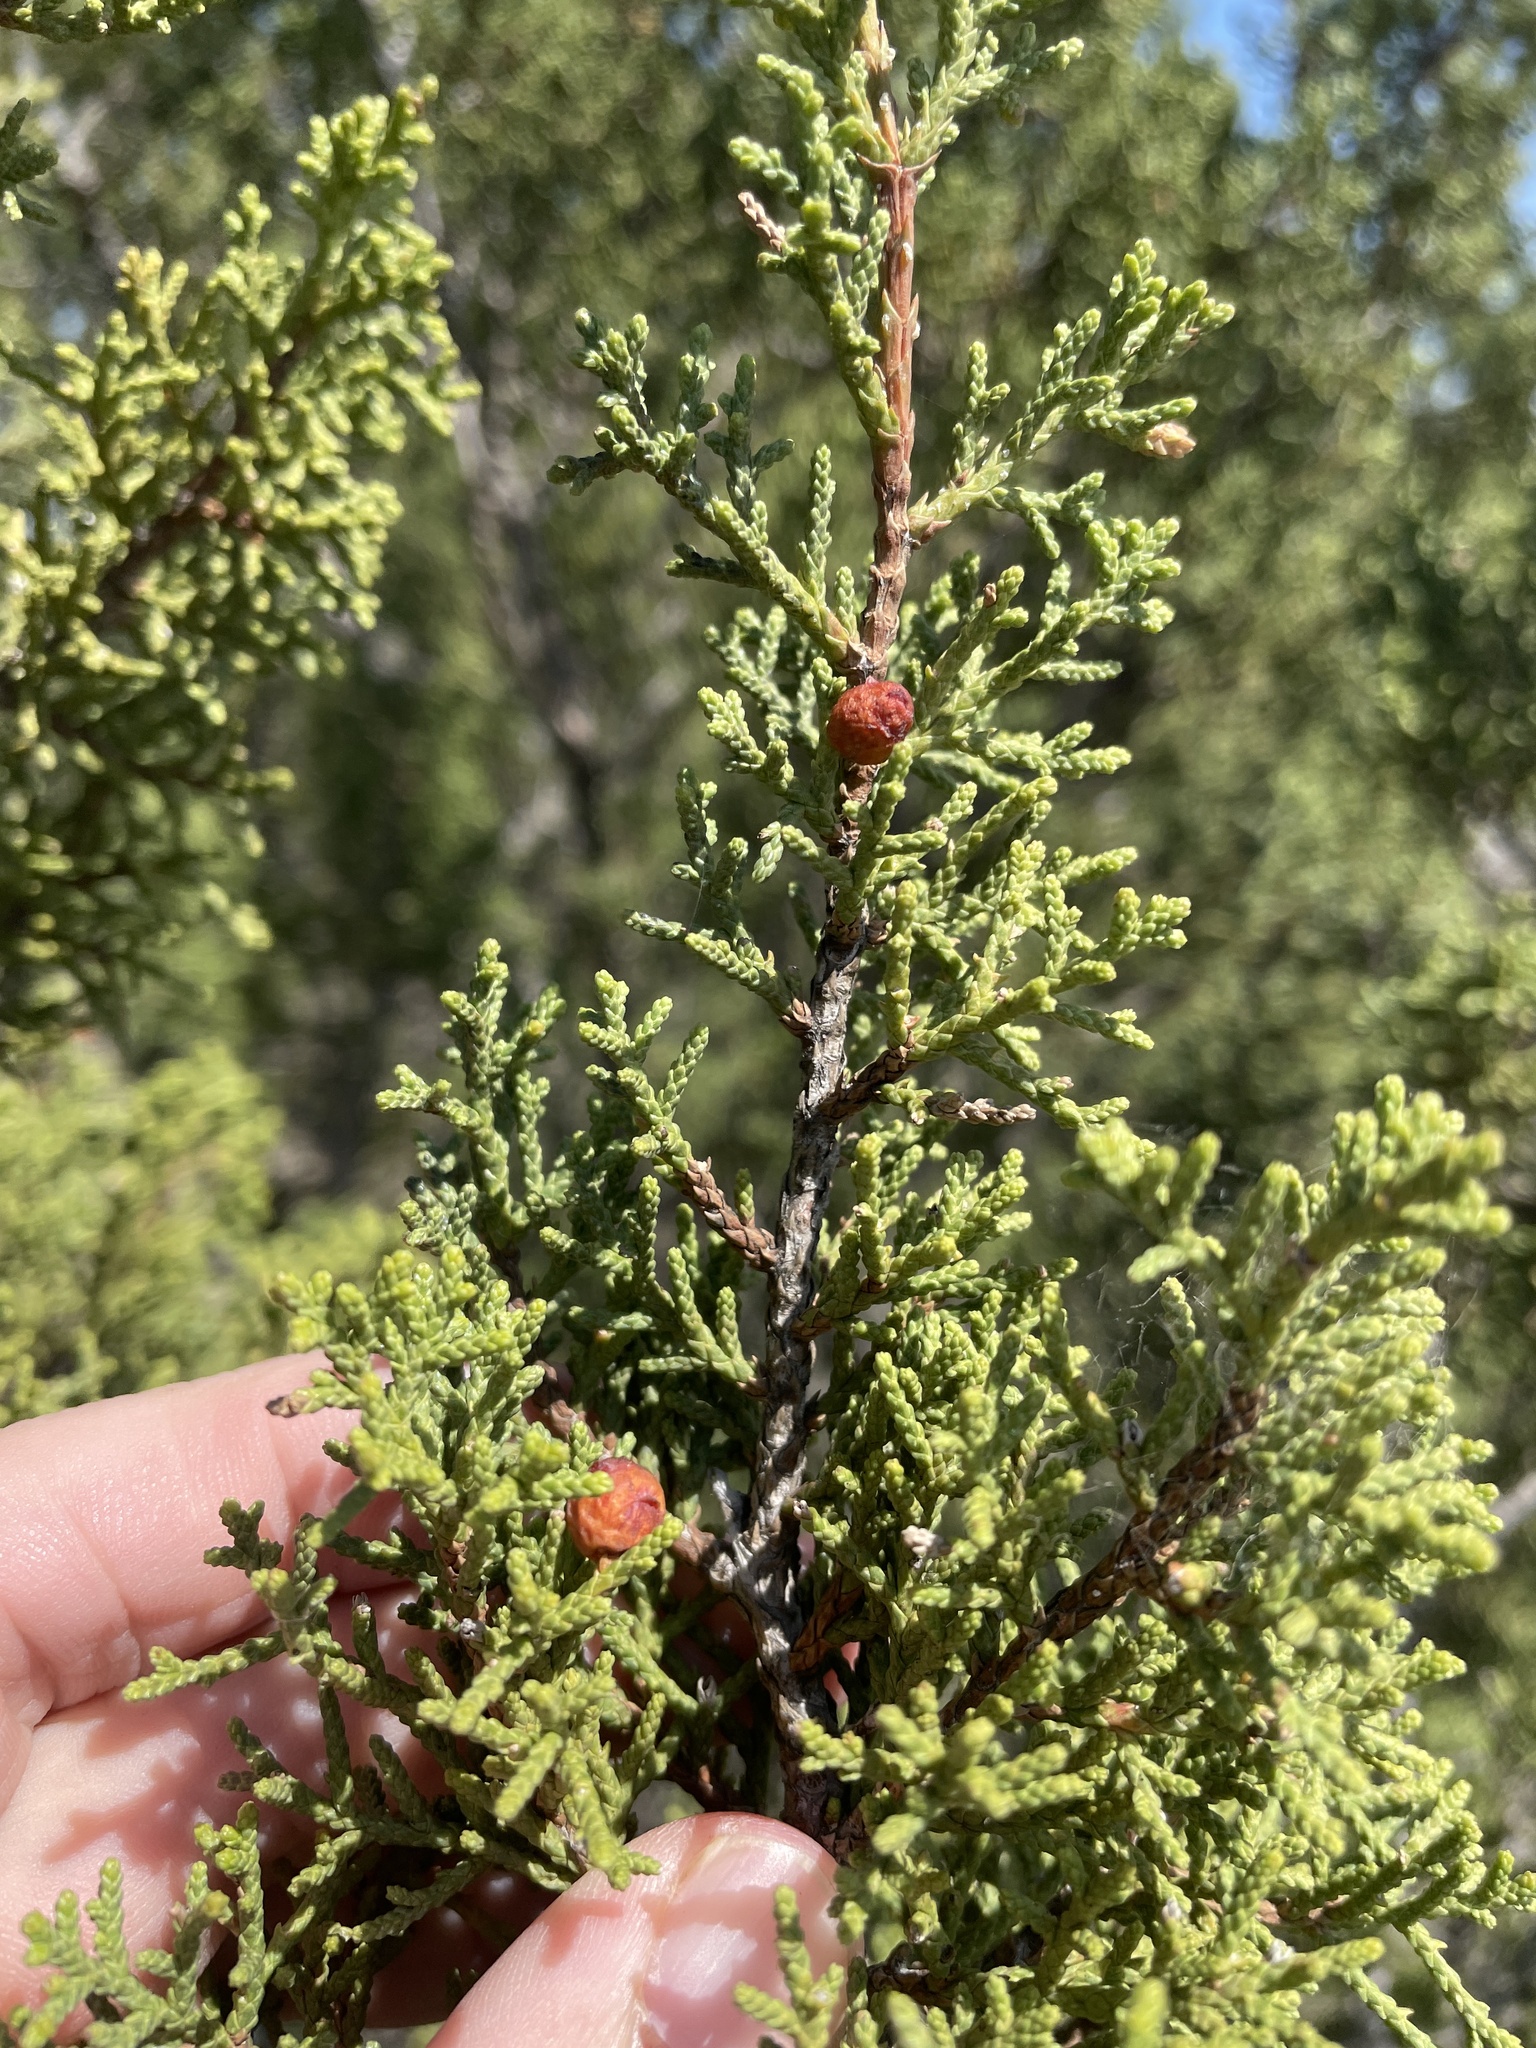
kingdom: Plantae
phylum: Tracheophyta
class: Pinopsida
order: Pinales
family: Cupressaceae
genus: Juniperus
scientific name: Juniperus pinchotii
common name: Pinchot juniper
